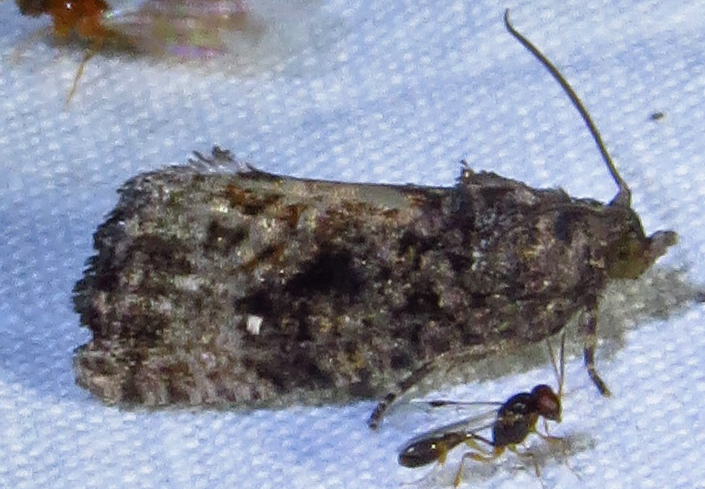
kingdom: Animalia
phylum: Arthropoda
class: Insecta
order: Lepidoptera
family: Tortricidae
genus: Gymnandrosoma
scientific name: Gymnandrosoma punctidiscanum
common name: Dotted ecdytolopha moth
